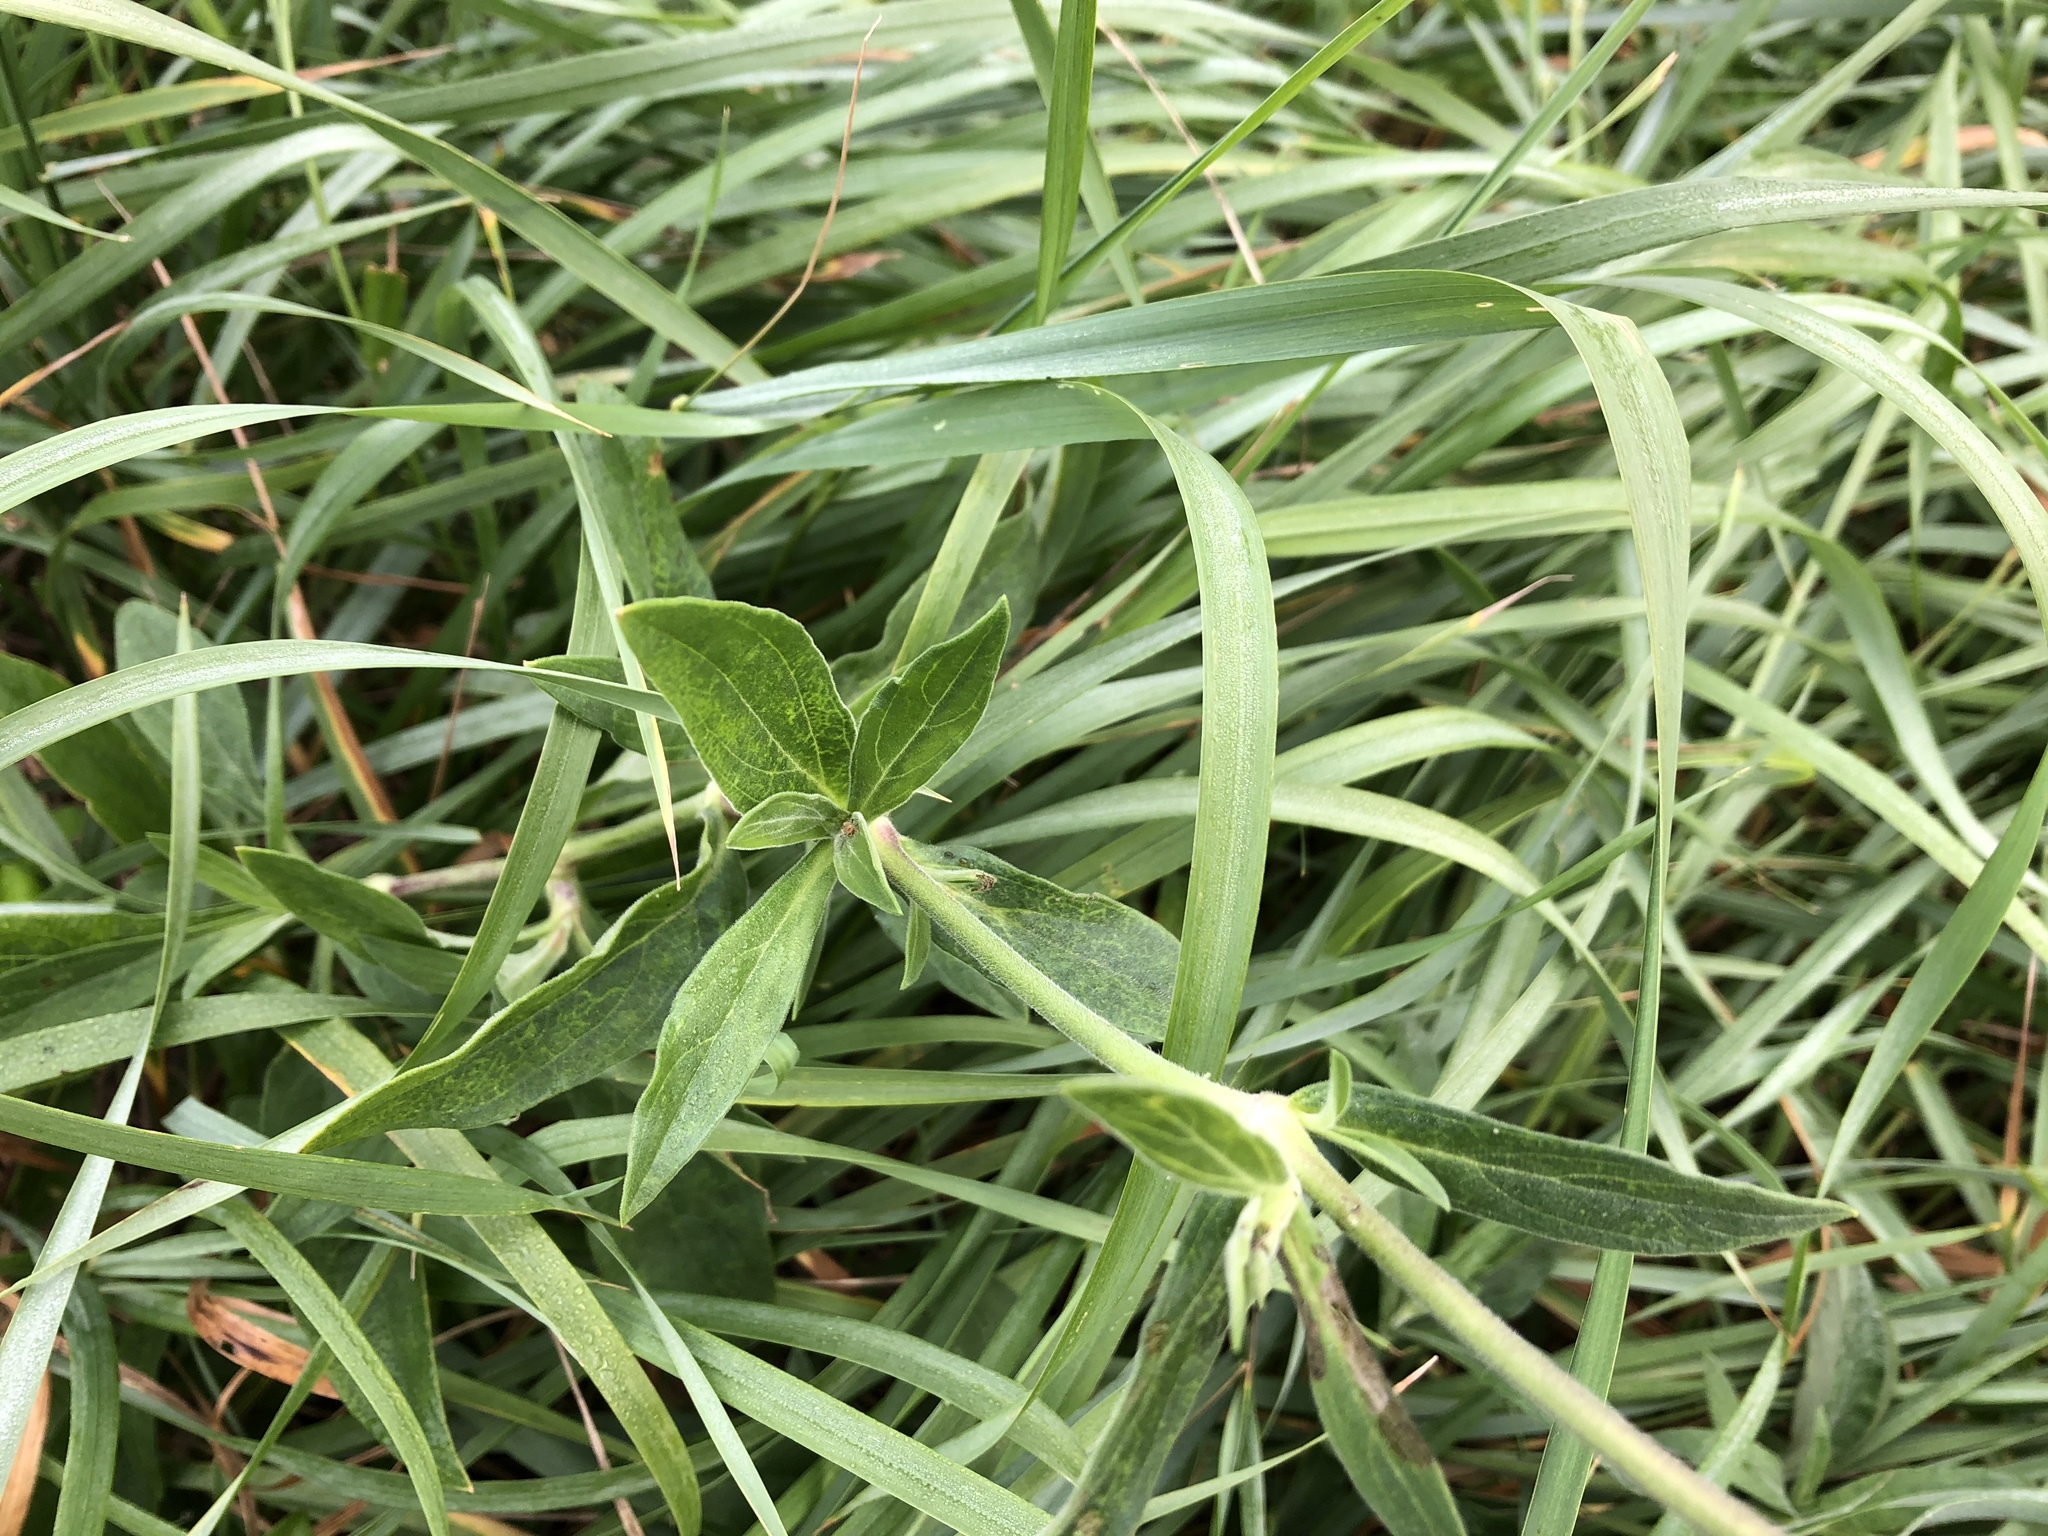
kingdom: Plantae
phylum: Tracheophyta
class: Magnoliopsida
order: Caryophyllales
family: Caryophyllaceae
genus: Silene
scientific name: Silene latifolia
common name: White campion
